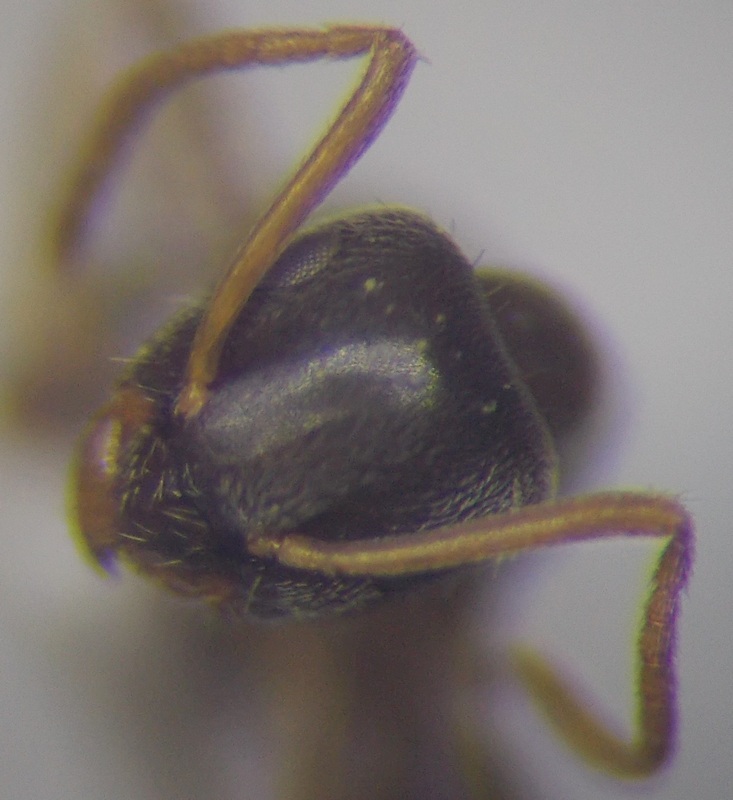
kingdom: Animalia
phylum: Arthropoda
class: Insecta
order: Hymenoptera
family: Formicidae
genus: Lasius
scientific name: Lasius alienus
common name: Alien field ant
